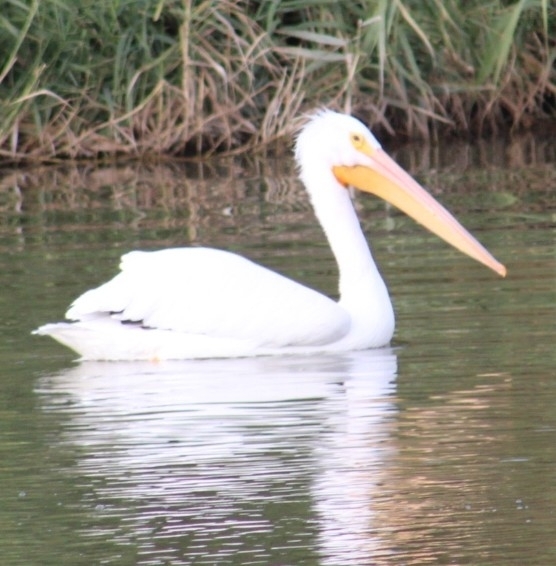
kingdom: Animalia
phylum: Chordata
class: Aves
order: Pelecaniformes
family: Pelecanidae
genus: Pelecanus
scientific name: Pelecanus erythrorhynchos
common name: American white pelican
